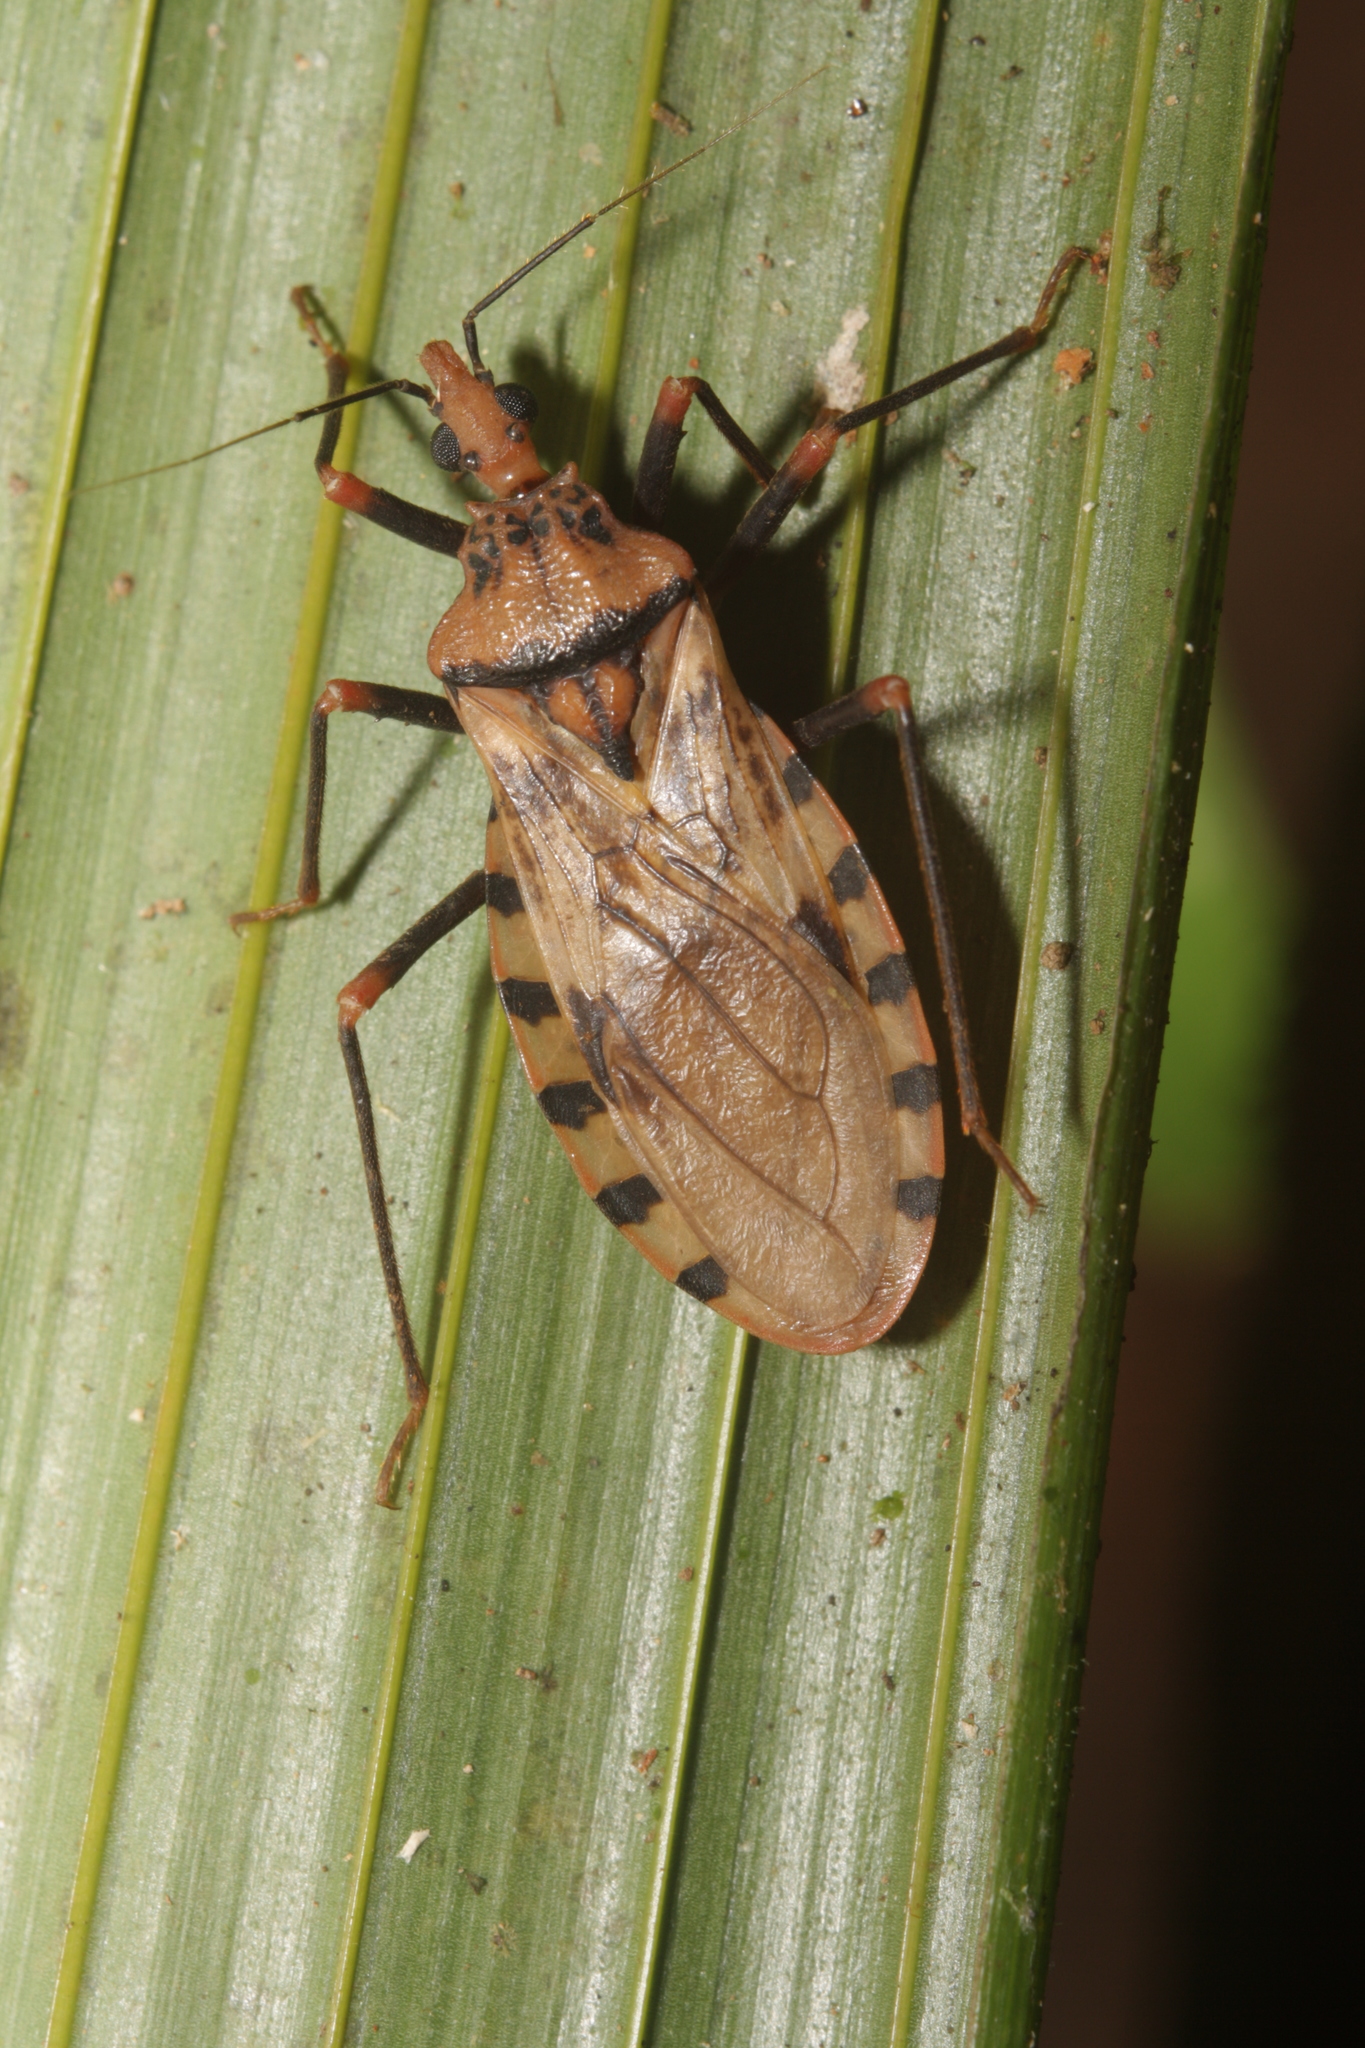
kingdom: Animalia
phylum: Arthropoda
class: Insecta
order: Hemiptera
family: Reduviidae
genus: Panstrongylus
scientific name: Panstrongylus geniculatus
